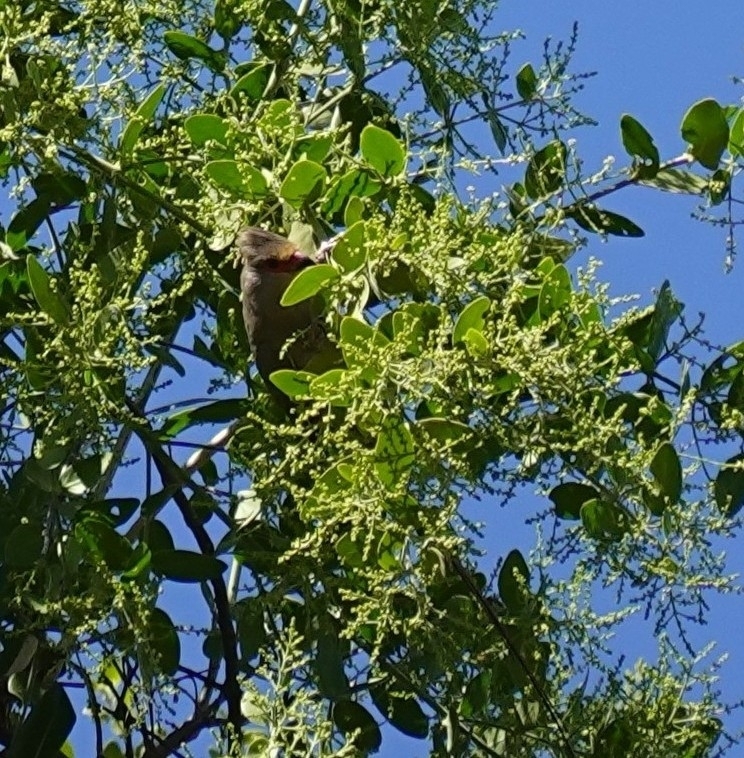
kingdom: Animalia
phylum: Chordata
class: Aves
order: Coliiformes
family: Coliidae
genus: Urocolius
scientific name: Urocolius indicus
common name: Red-faced mousebird
